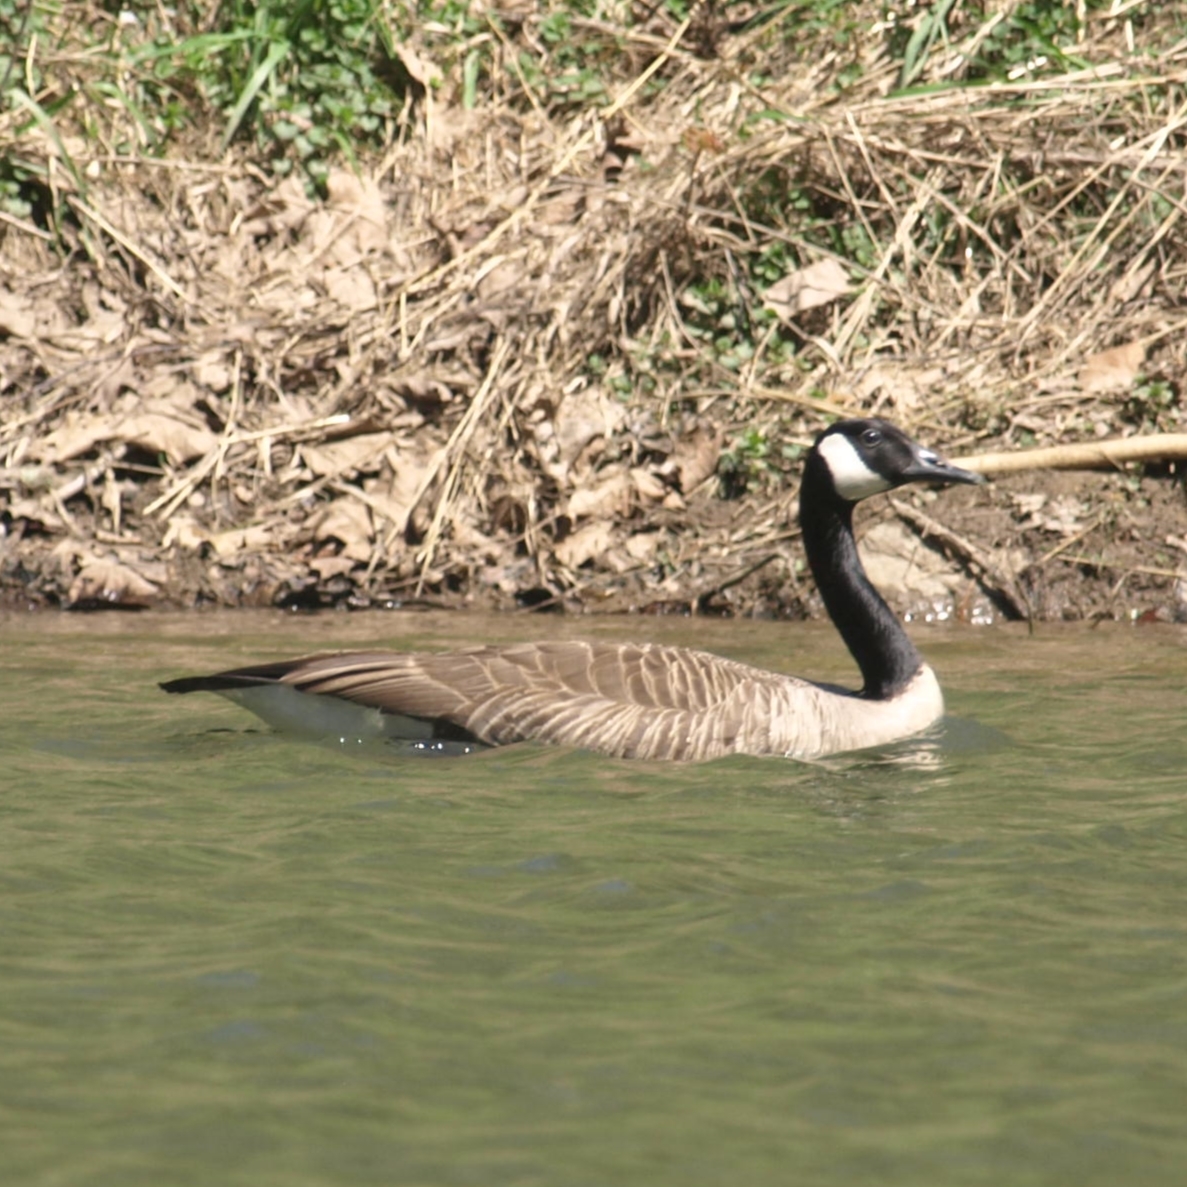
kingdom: Animalia
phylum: Chordata
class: Aves
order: Anseriformes
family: Anatidae
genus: Branta
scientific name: Branta canadensis
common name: Canada goose
